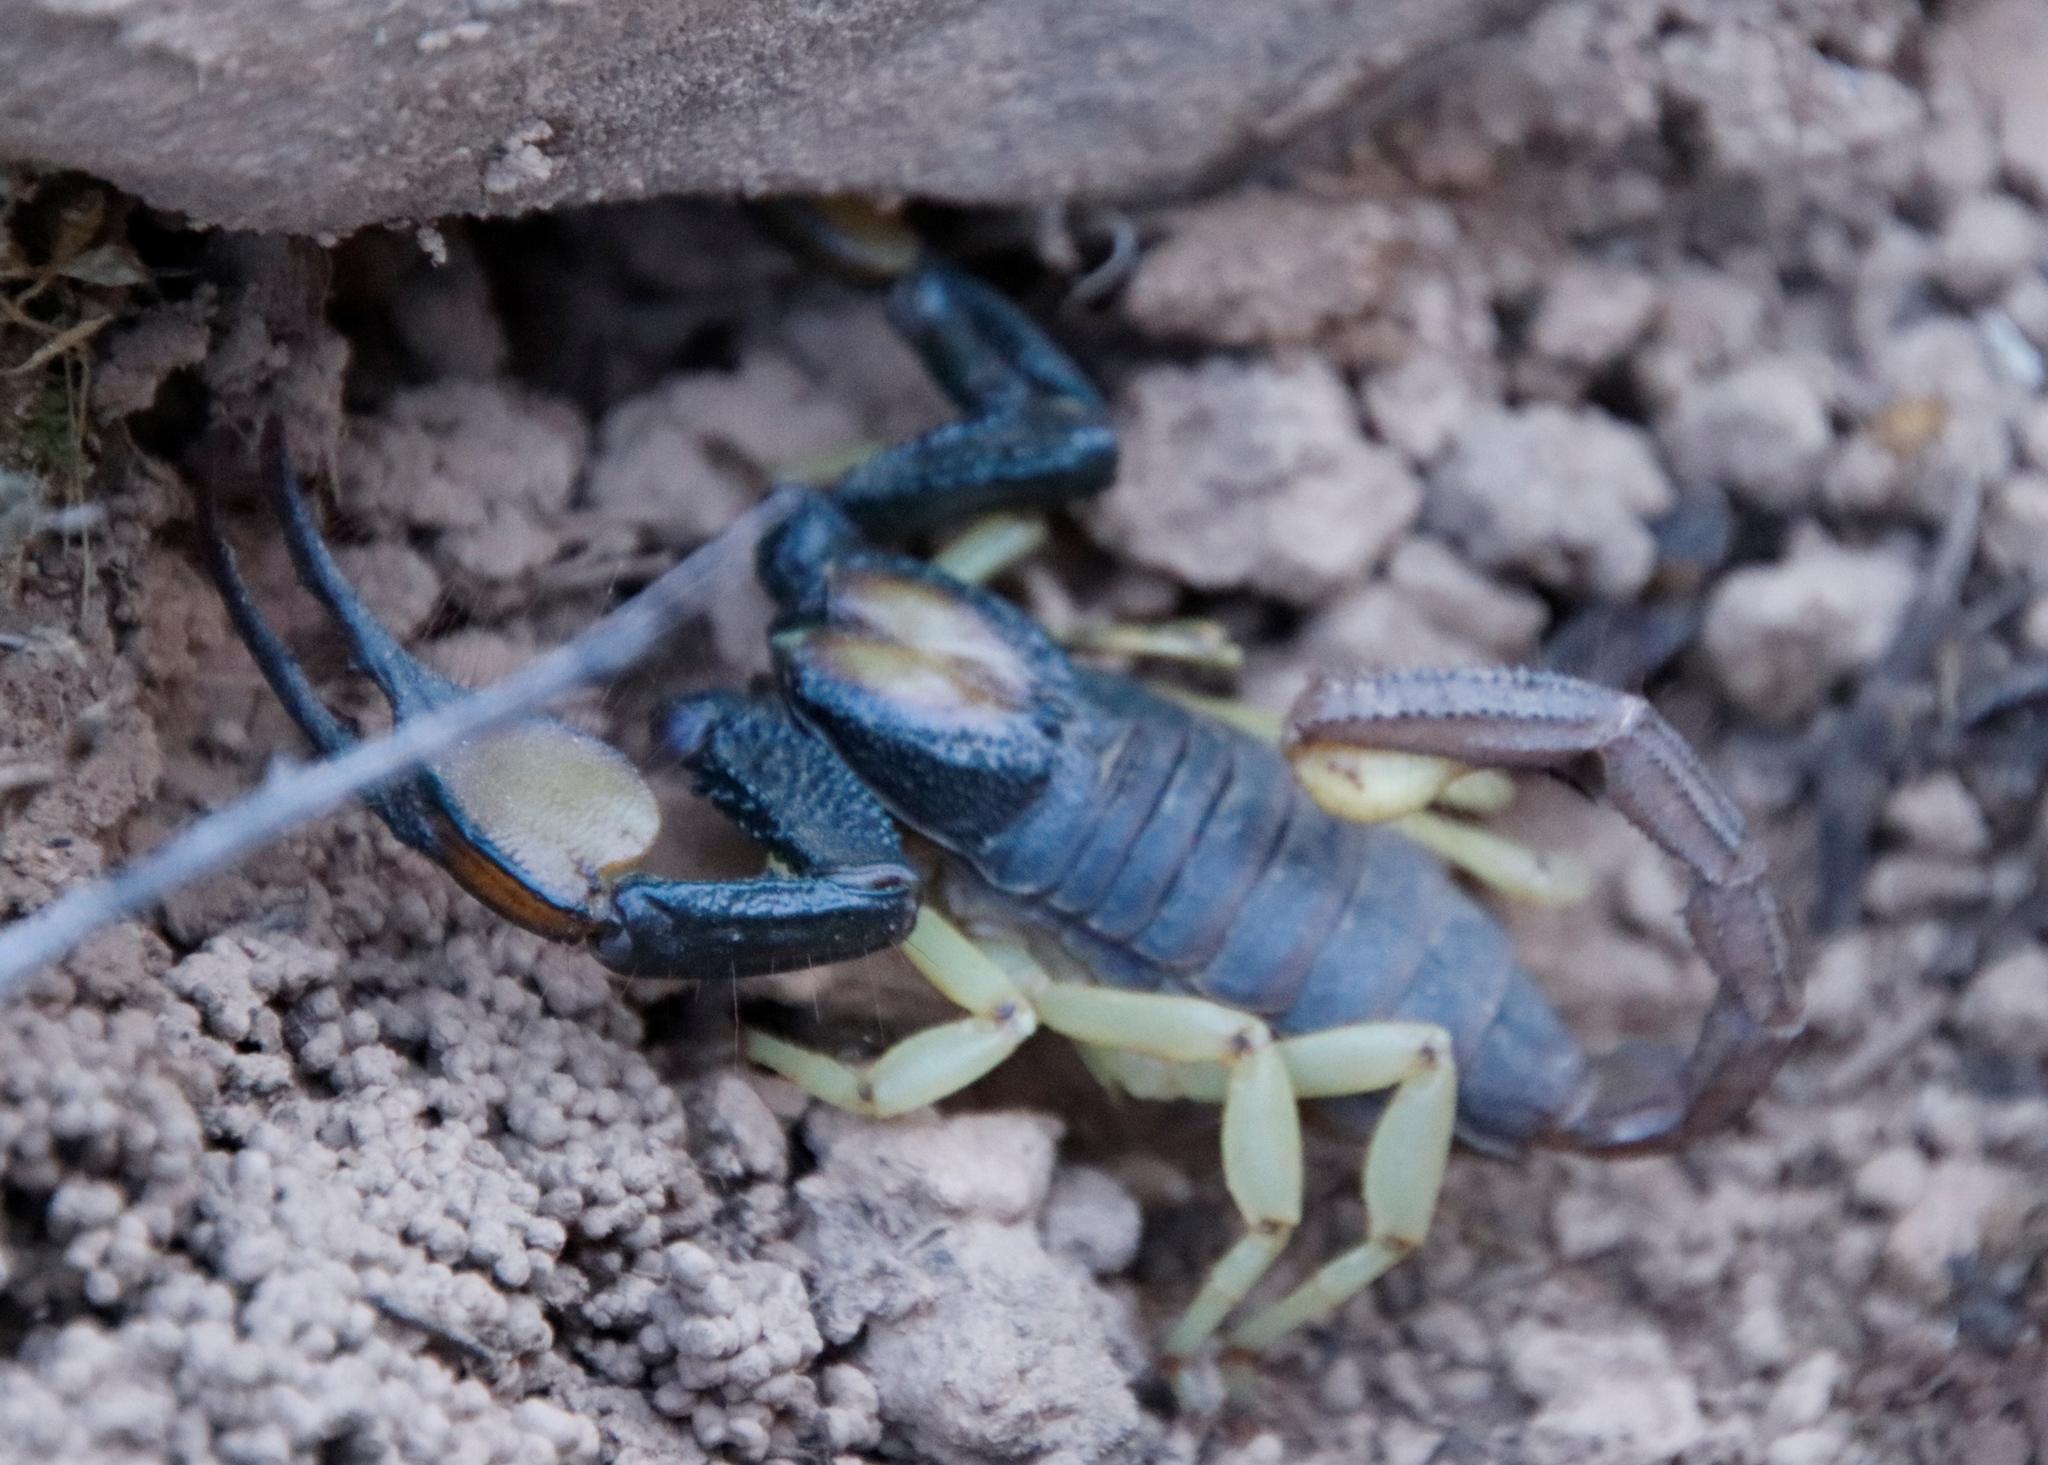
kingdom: Animalia
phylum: Arthropoda
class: Arachnida
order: Scorpiones
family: Scorpionidae
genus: Opistophthalmus
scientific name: Opistophthalmus pallipes
